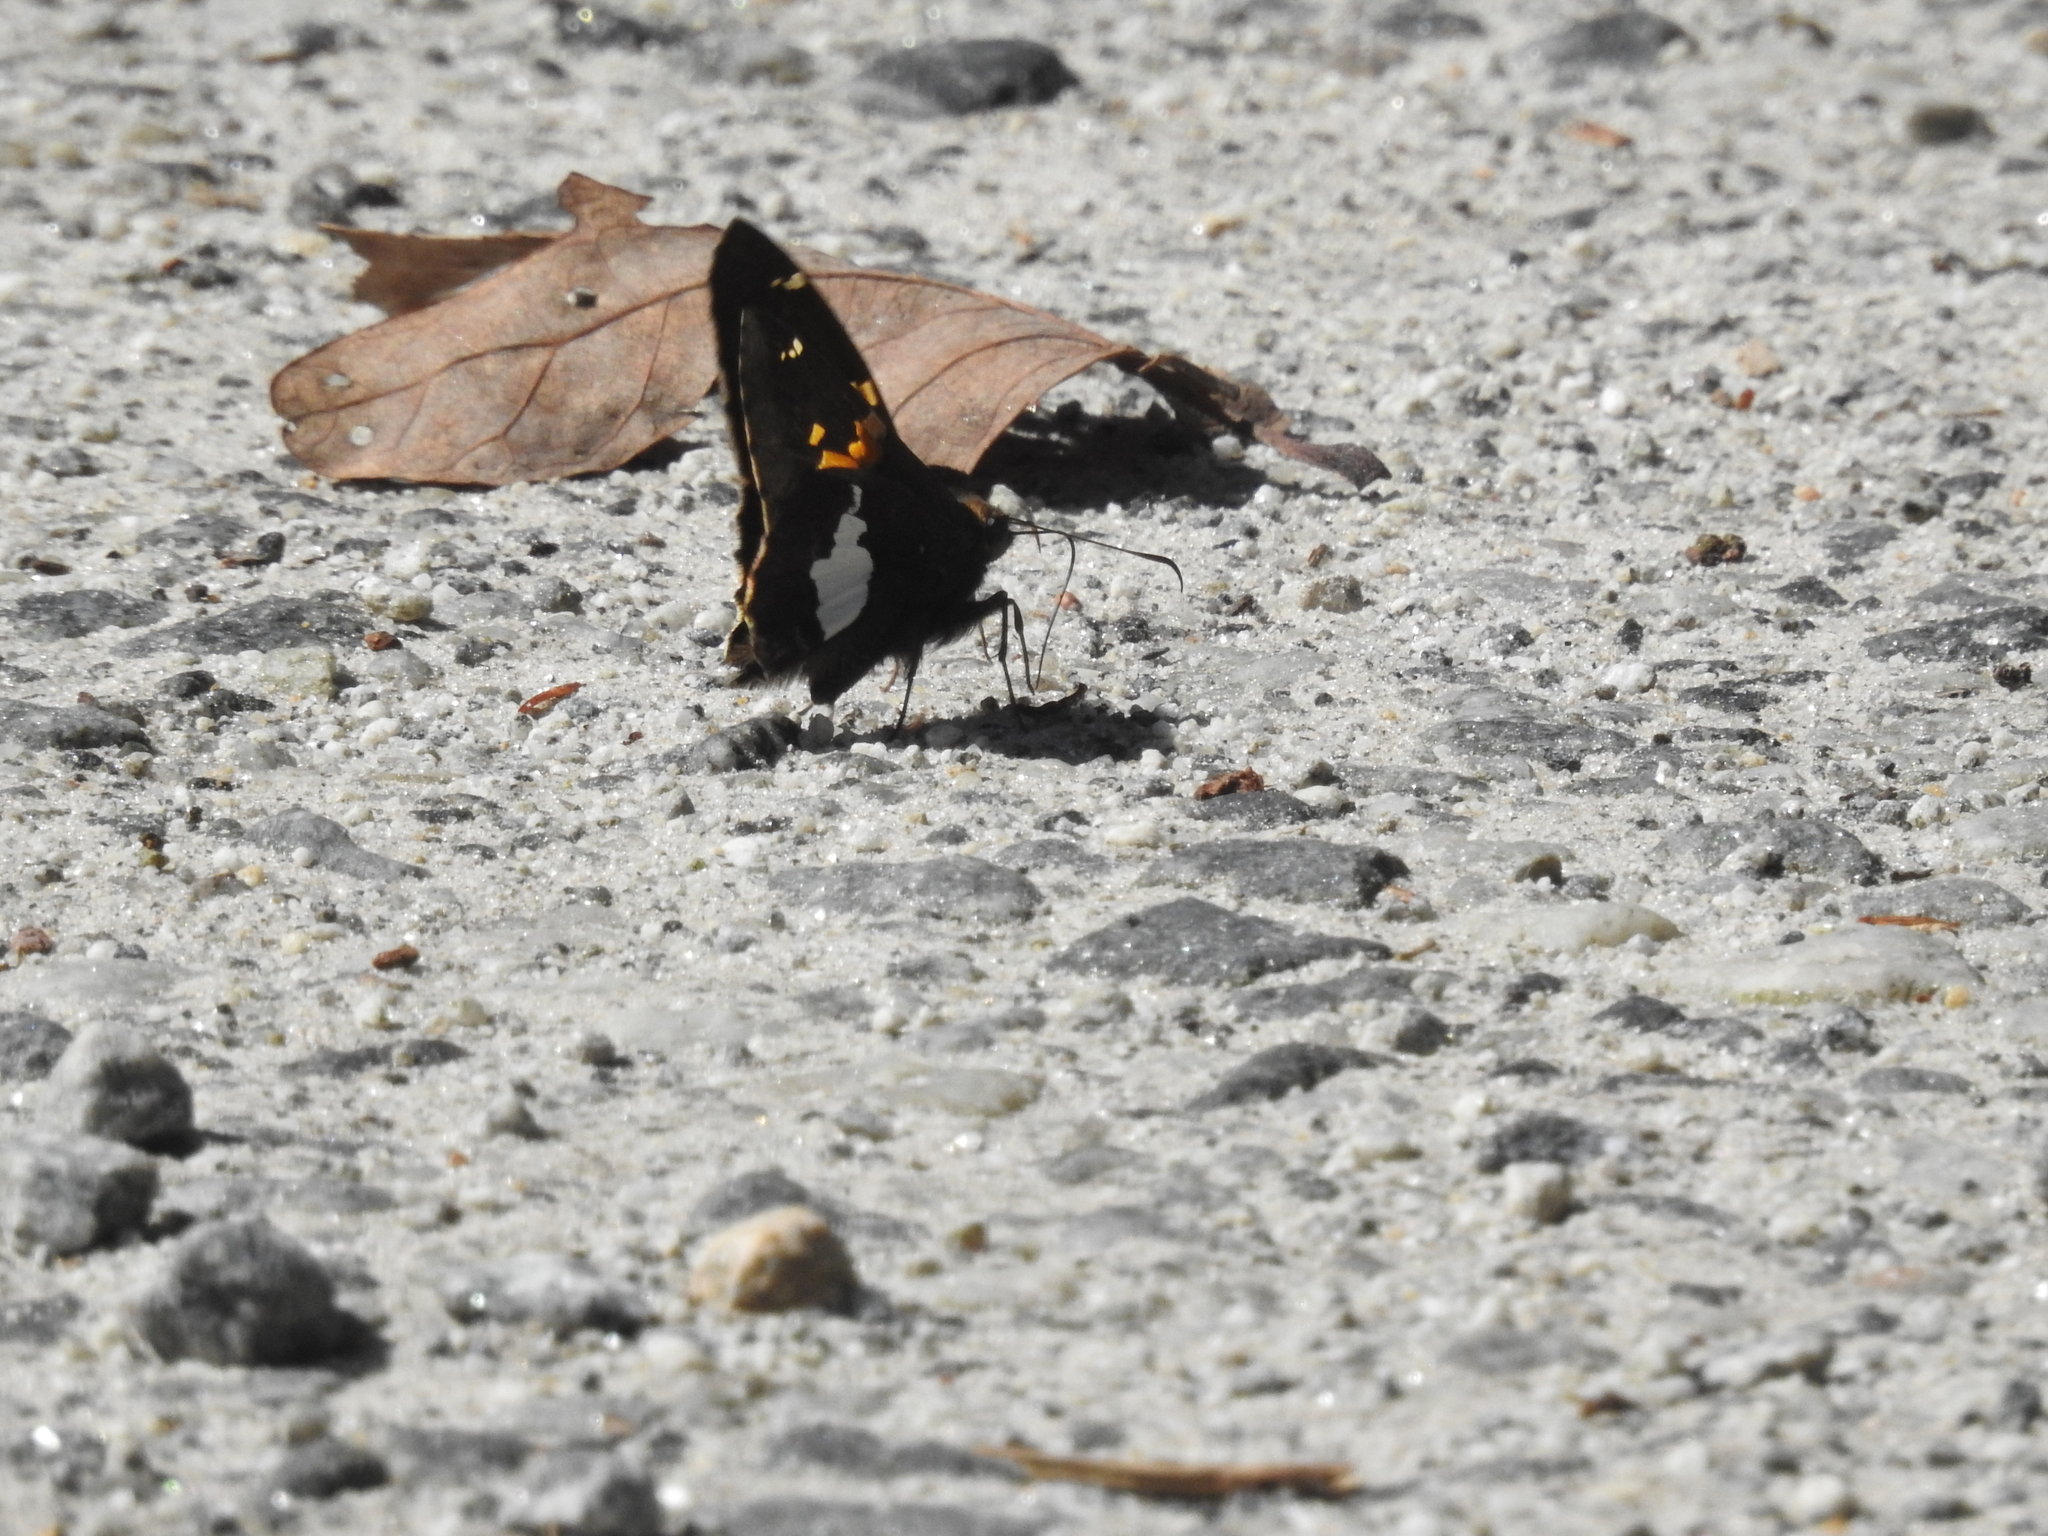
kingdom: Animalia
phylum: Arthropoda
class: Insecta
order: Lepidoptera
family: Hesperiidae
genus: Epargyreus
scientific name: Epargyreus clarus
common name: Silver-spotted skipper
